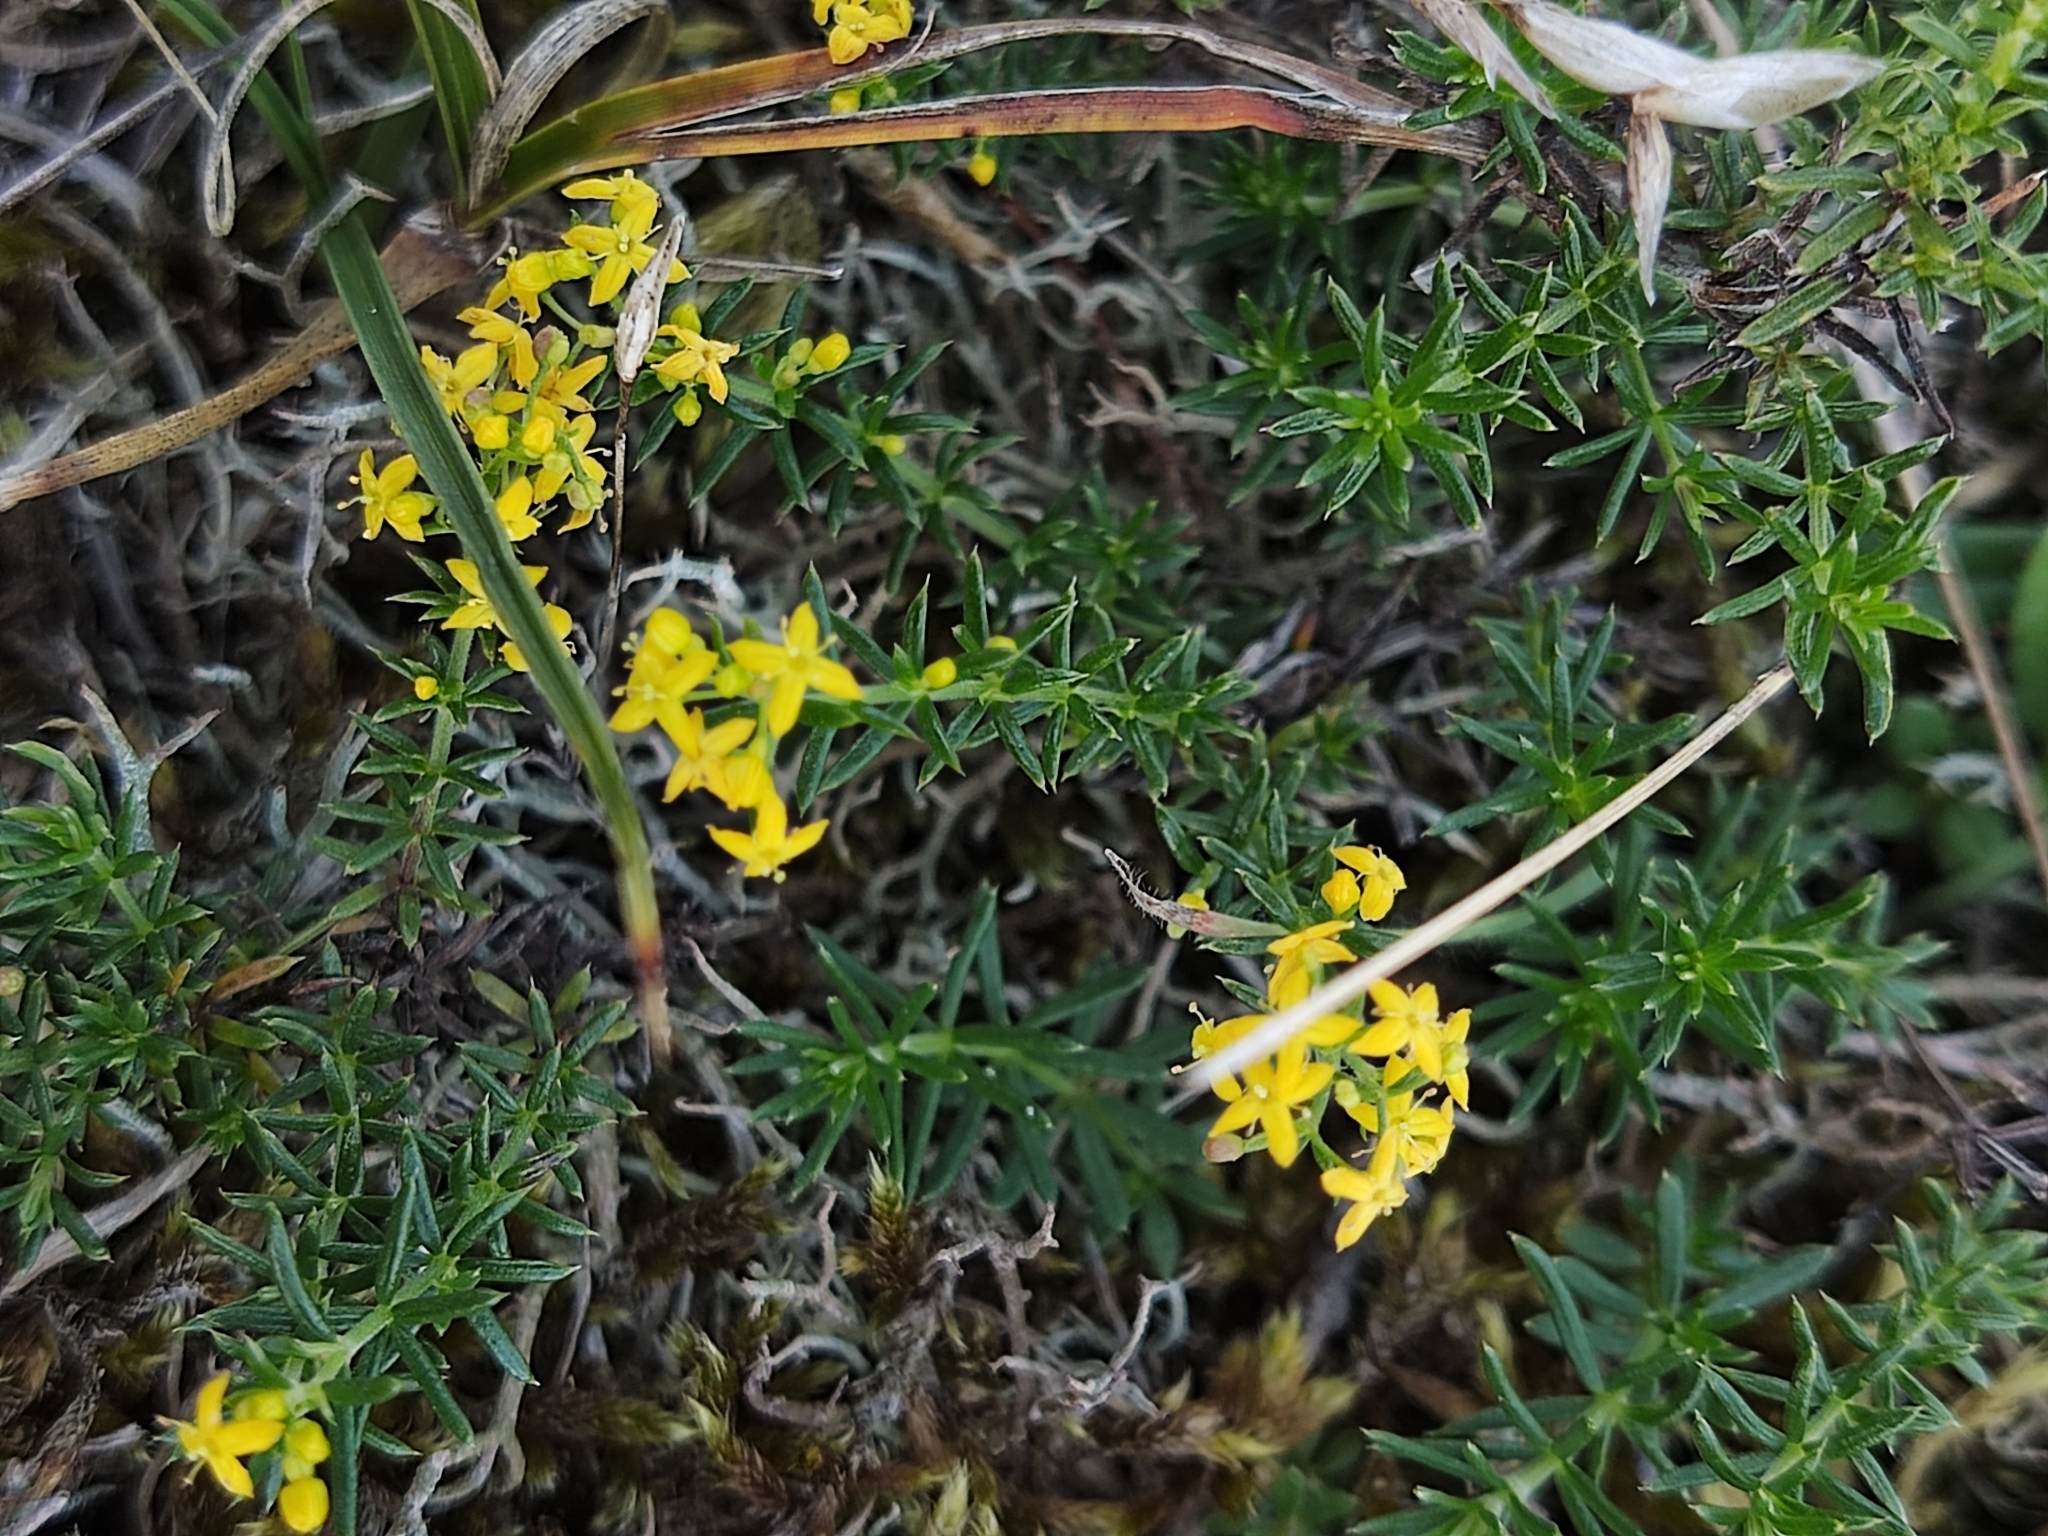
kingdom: Plantae
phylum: Tracheophyta
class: Magnoliopsida
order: Gentianales
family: Rubiaceae
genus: Galium
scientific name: Galium verum
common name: Lady's bedstraw
